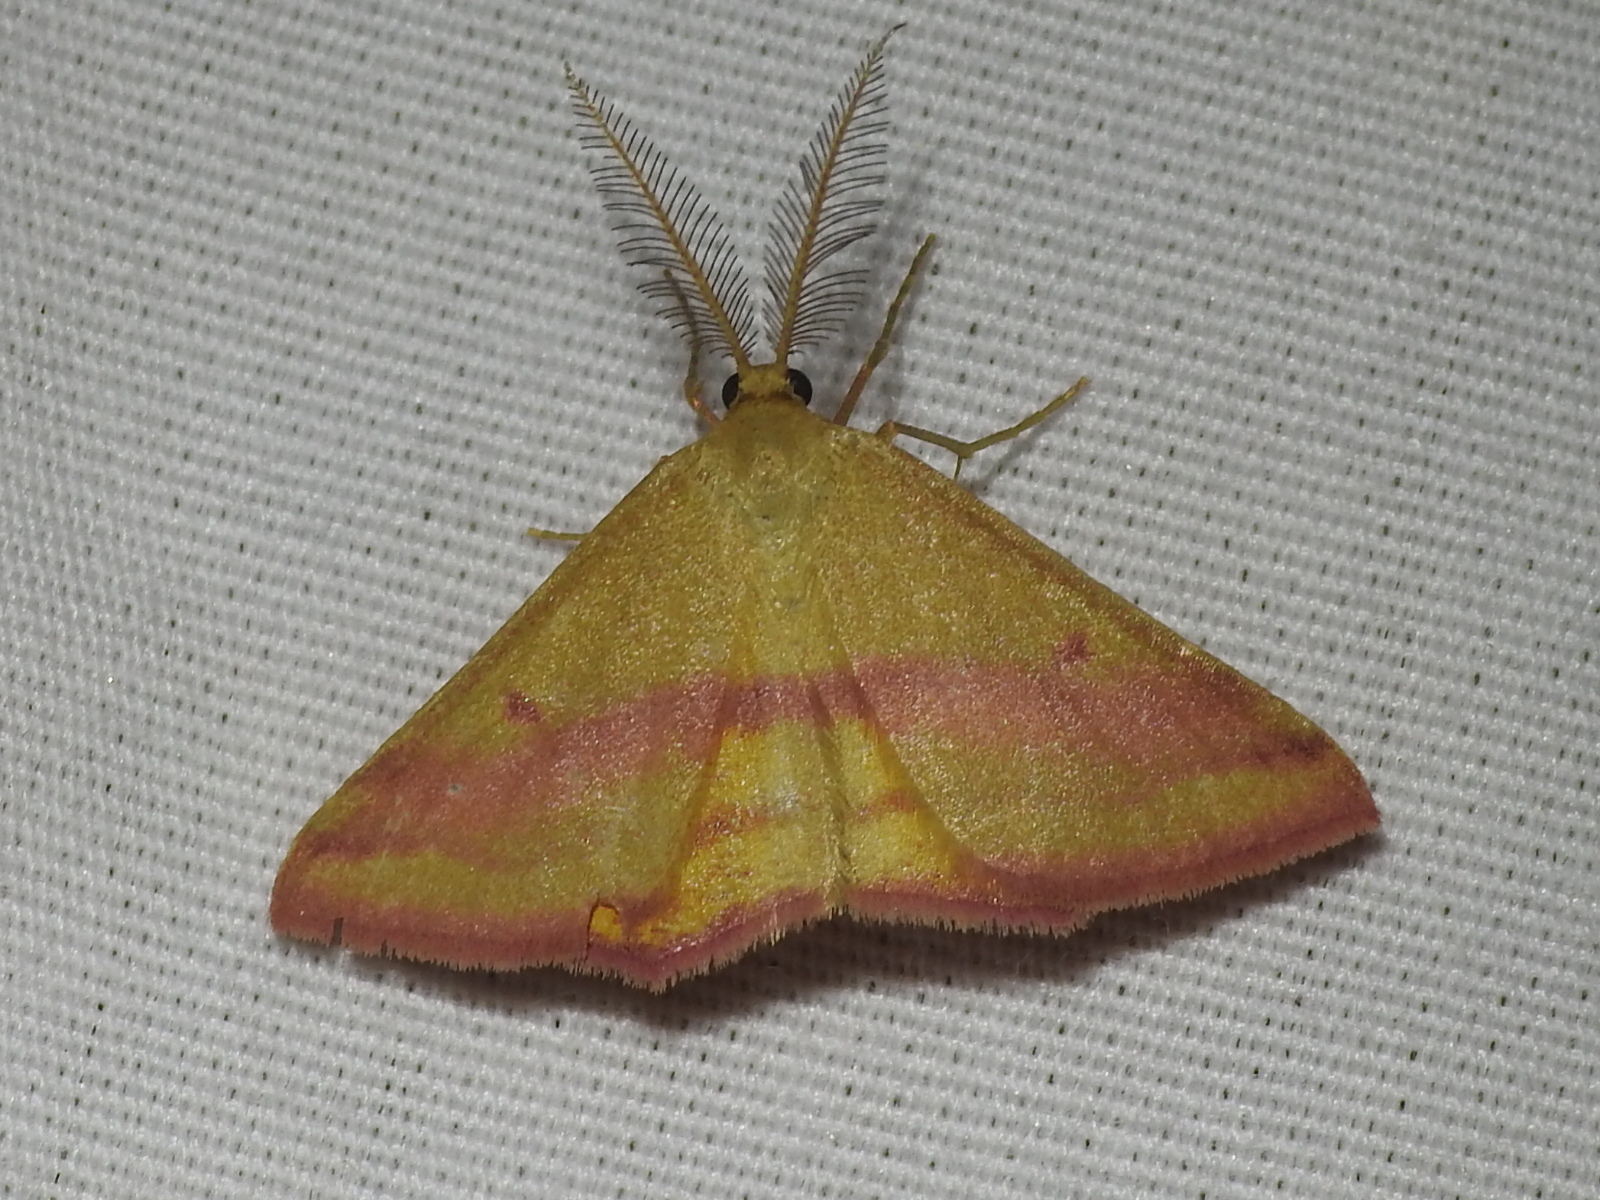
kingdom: Animalia
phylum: Arthropoda
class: Insecta
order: Lepidoptera
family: Geometridae
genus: Haematopis
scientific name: Haematopis grataria
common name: Chickweed geometer
